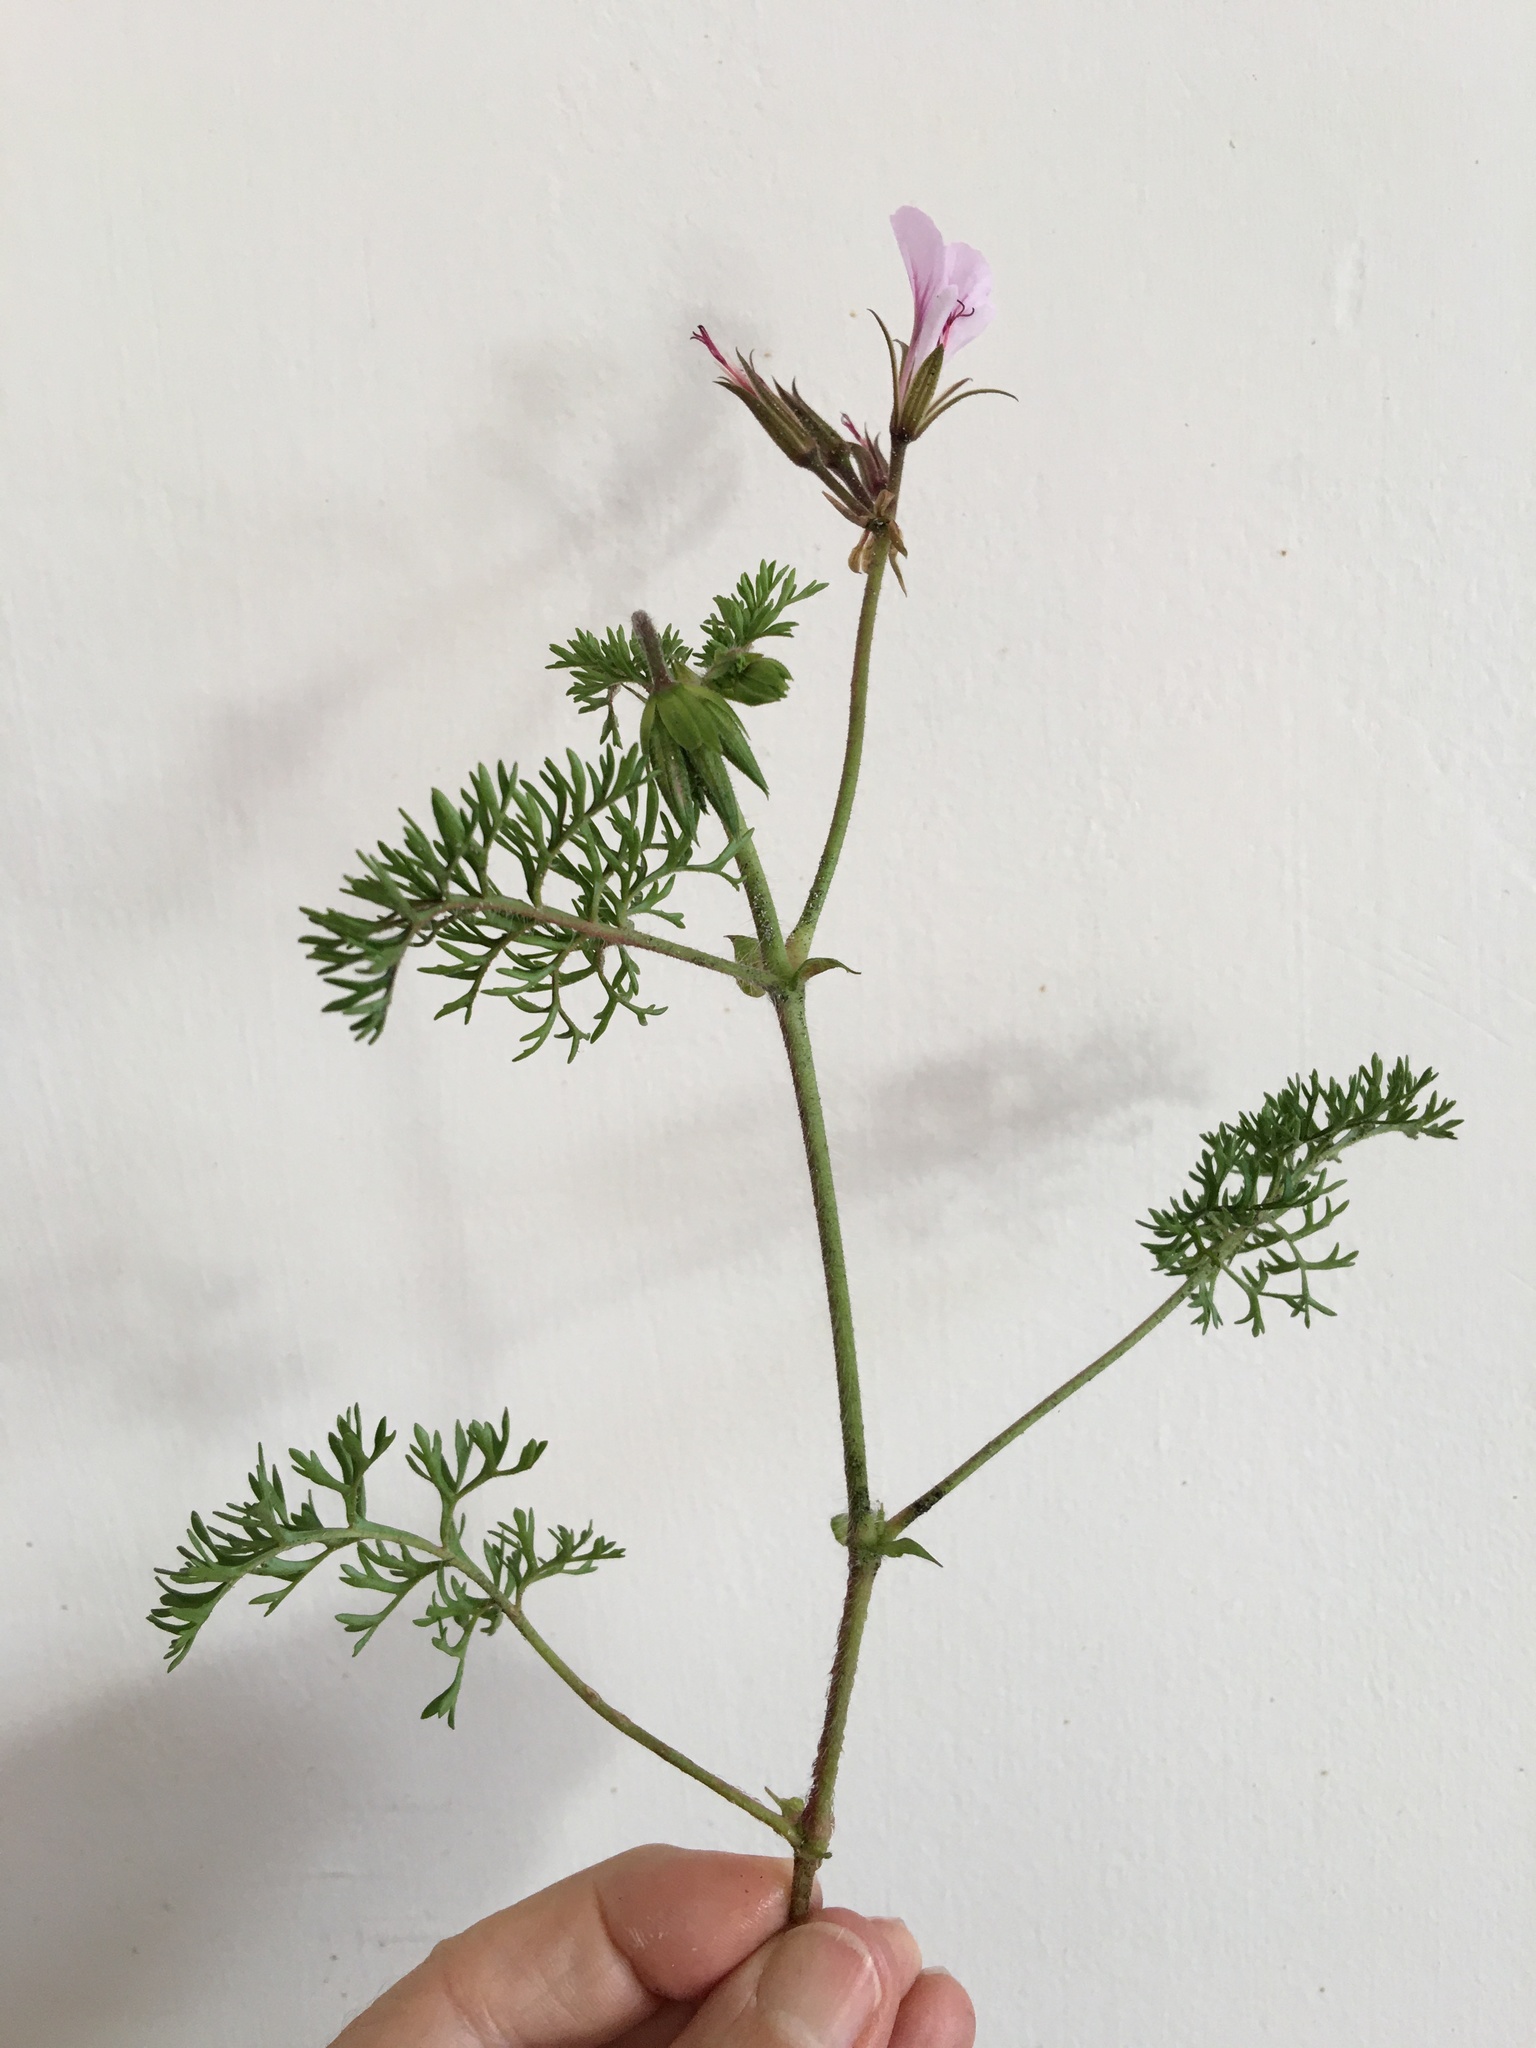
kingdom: Plantae
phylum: Tracheophyta
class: Magnoliopsida
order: Geraniales
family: Geraniaceae
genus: Pelargonium
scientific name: Pelargonium myrrhifolium
